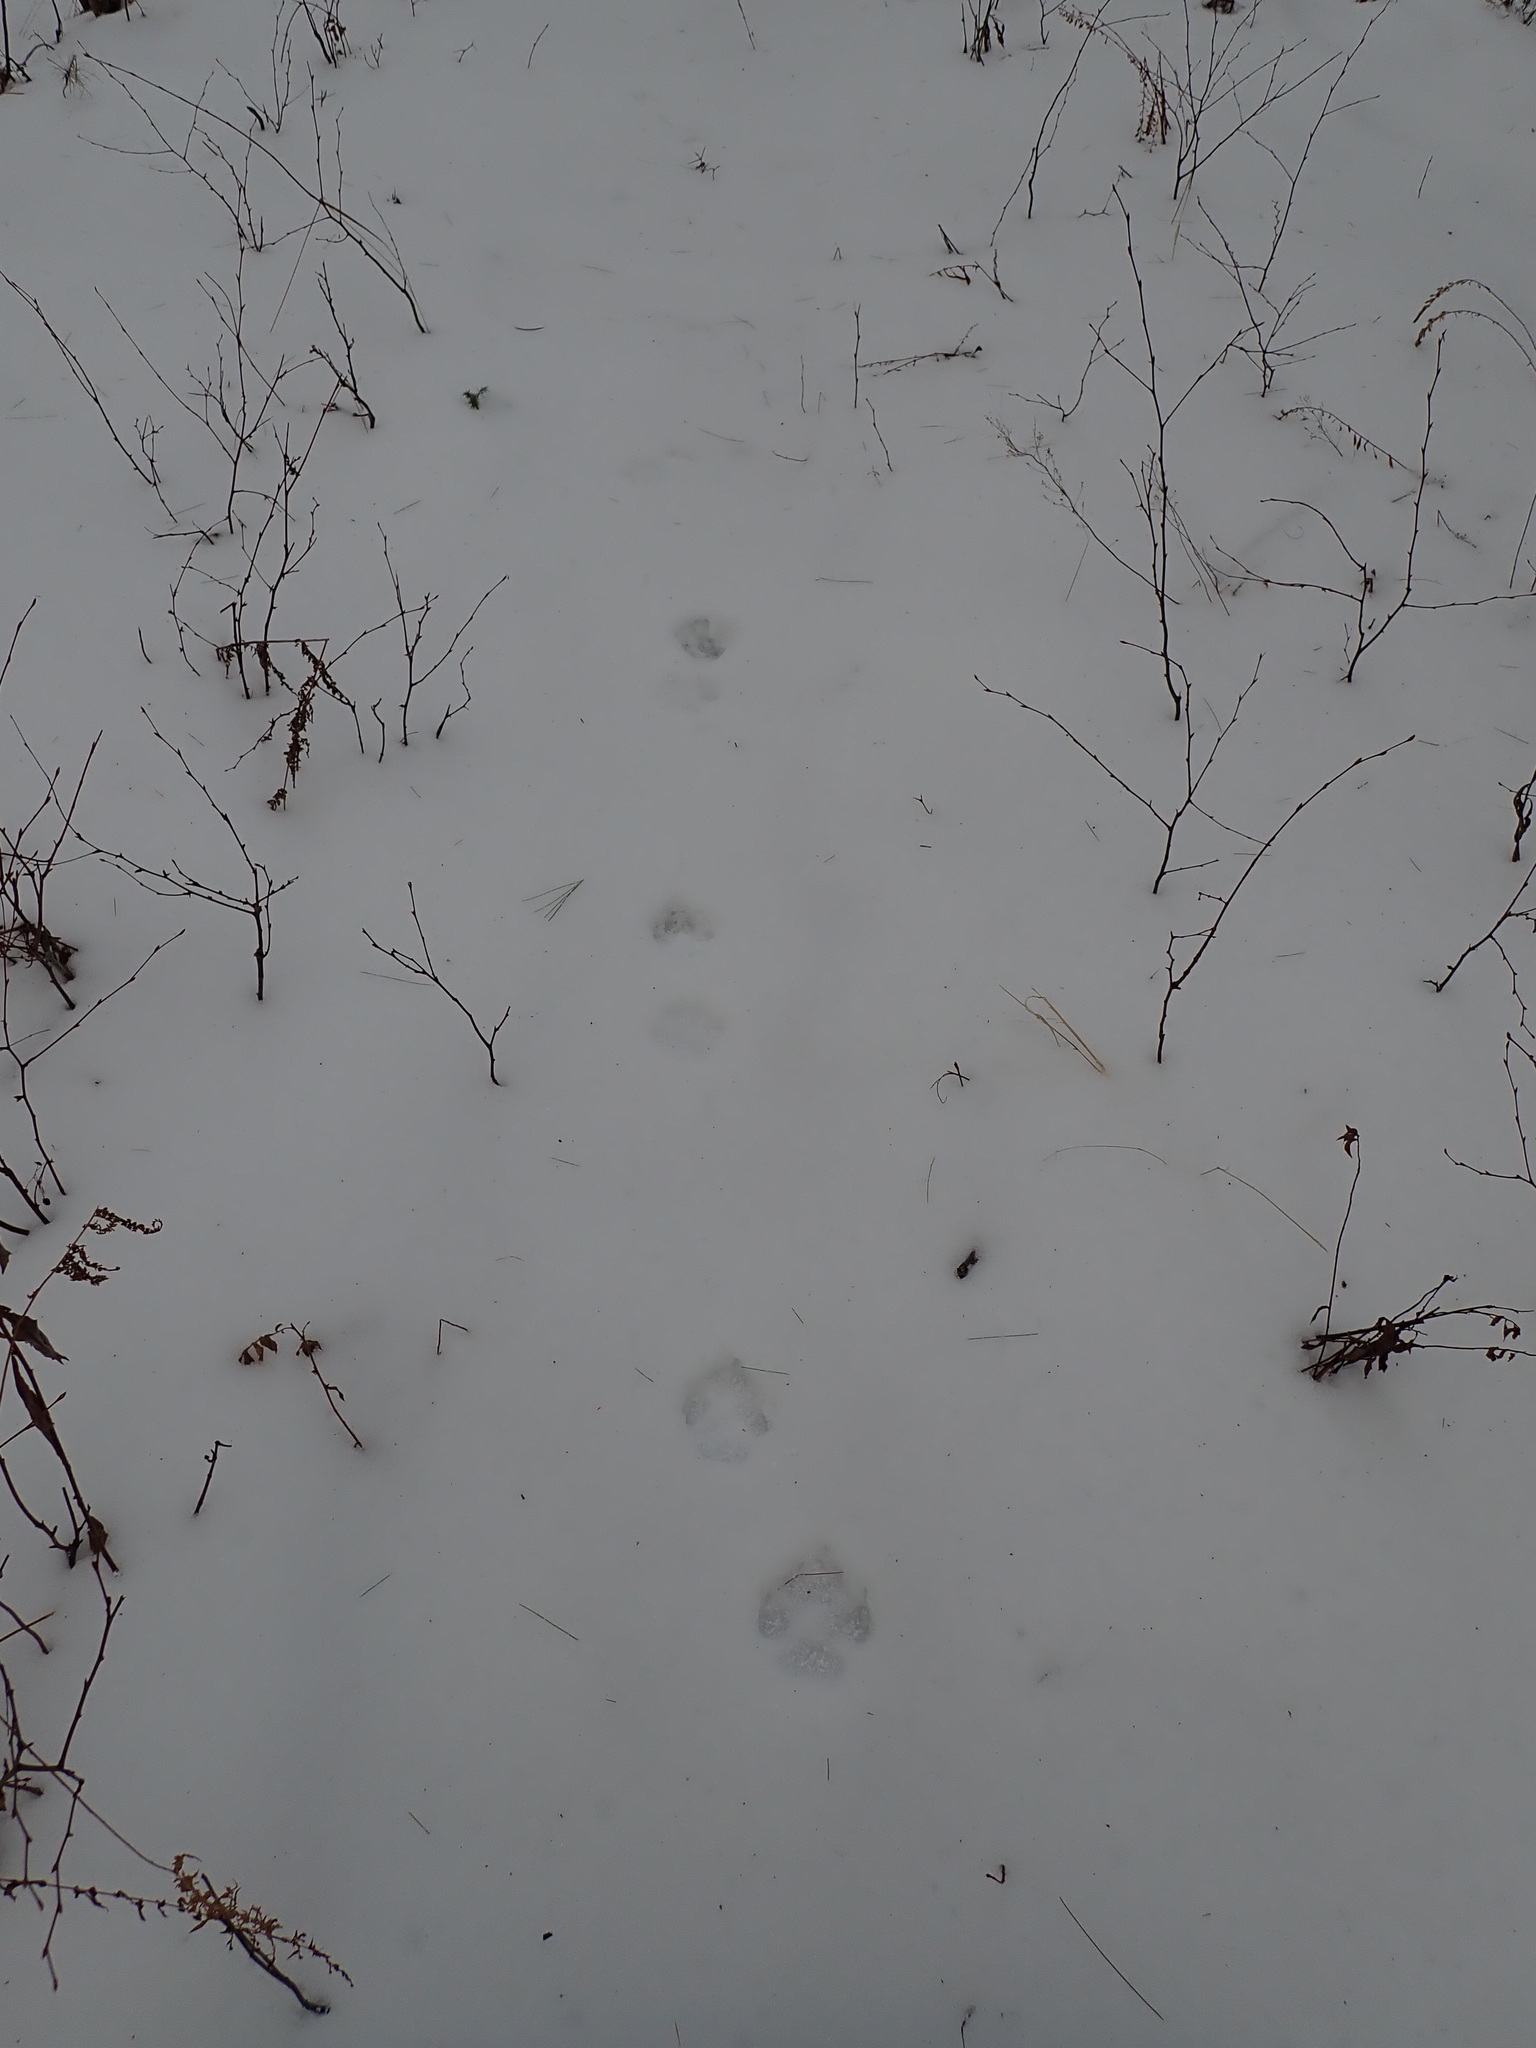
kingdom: Animalia
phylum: Chordata
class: Mammalia
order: Carnivora
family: Canidae
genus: Canis
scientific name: Canis latrans
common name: Coyote
